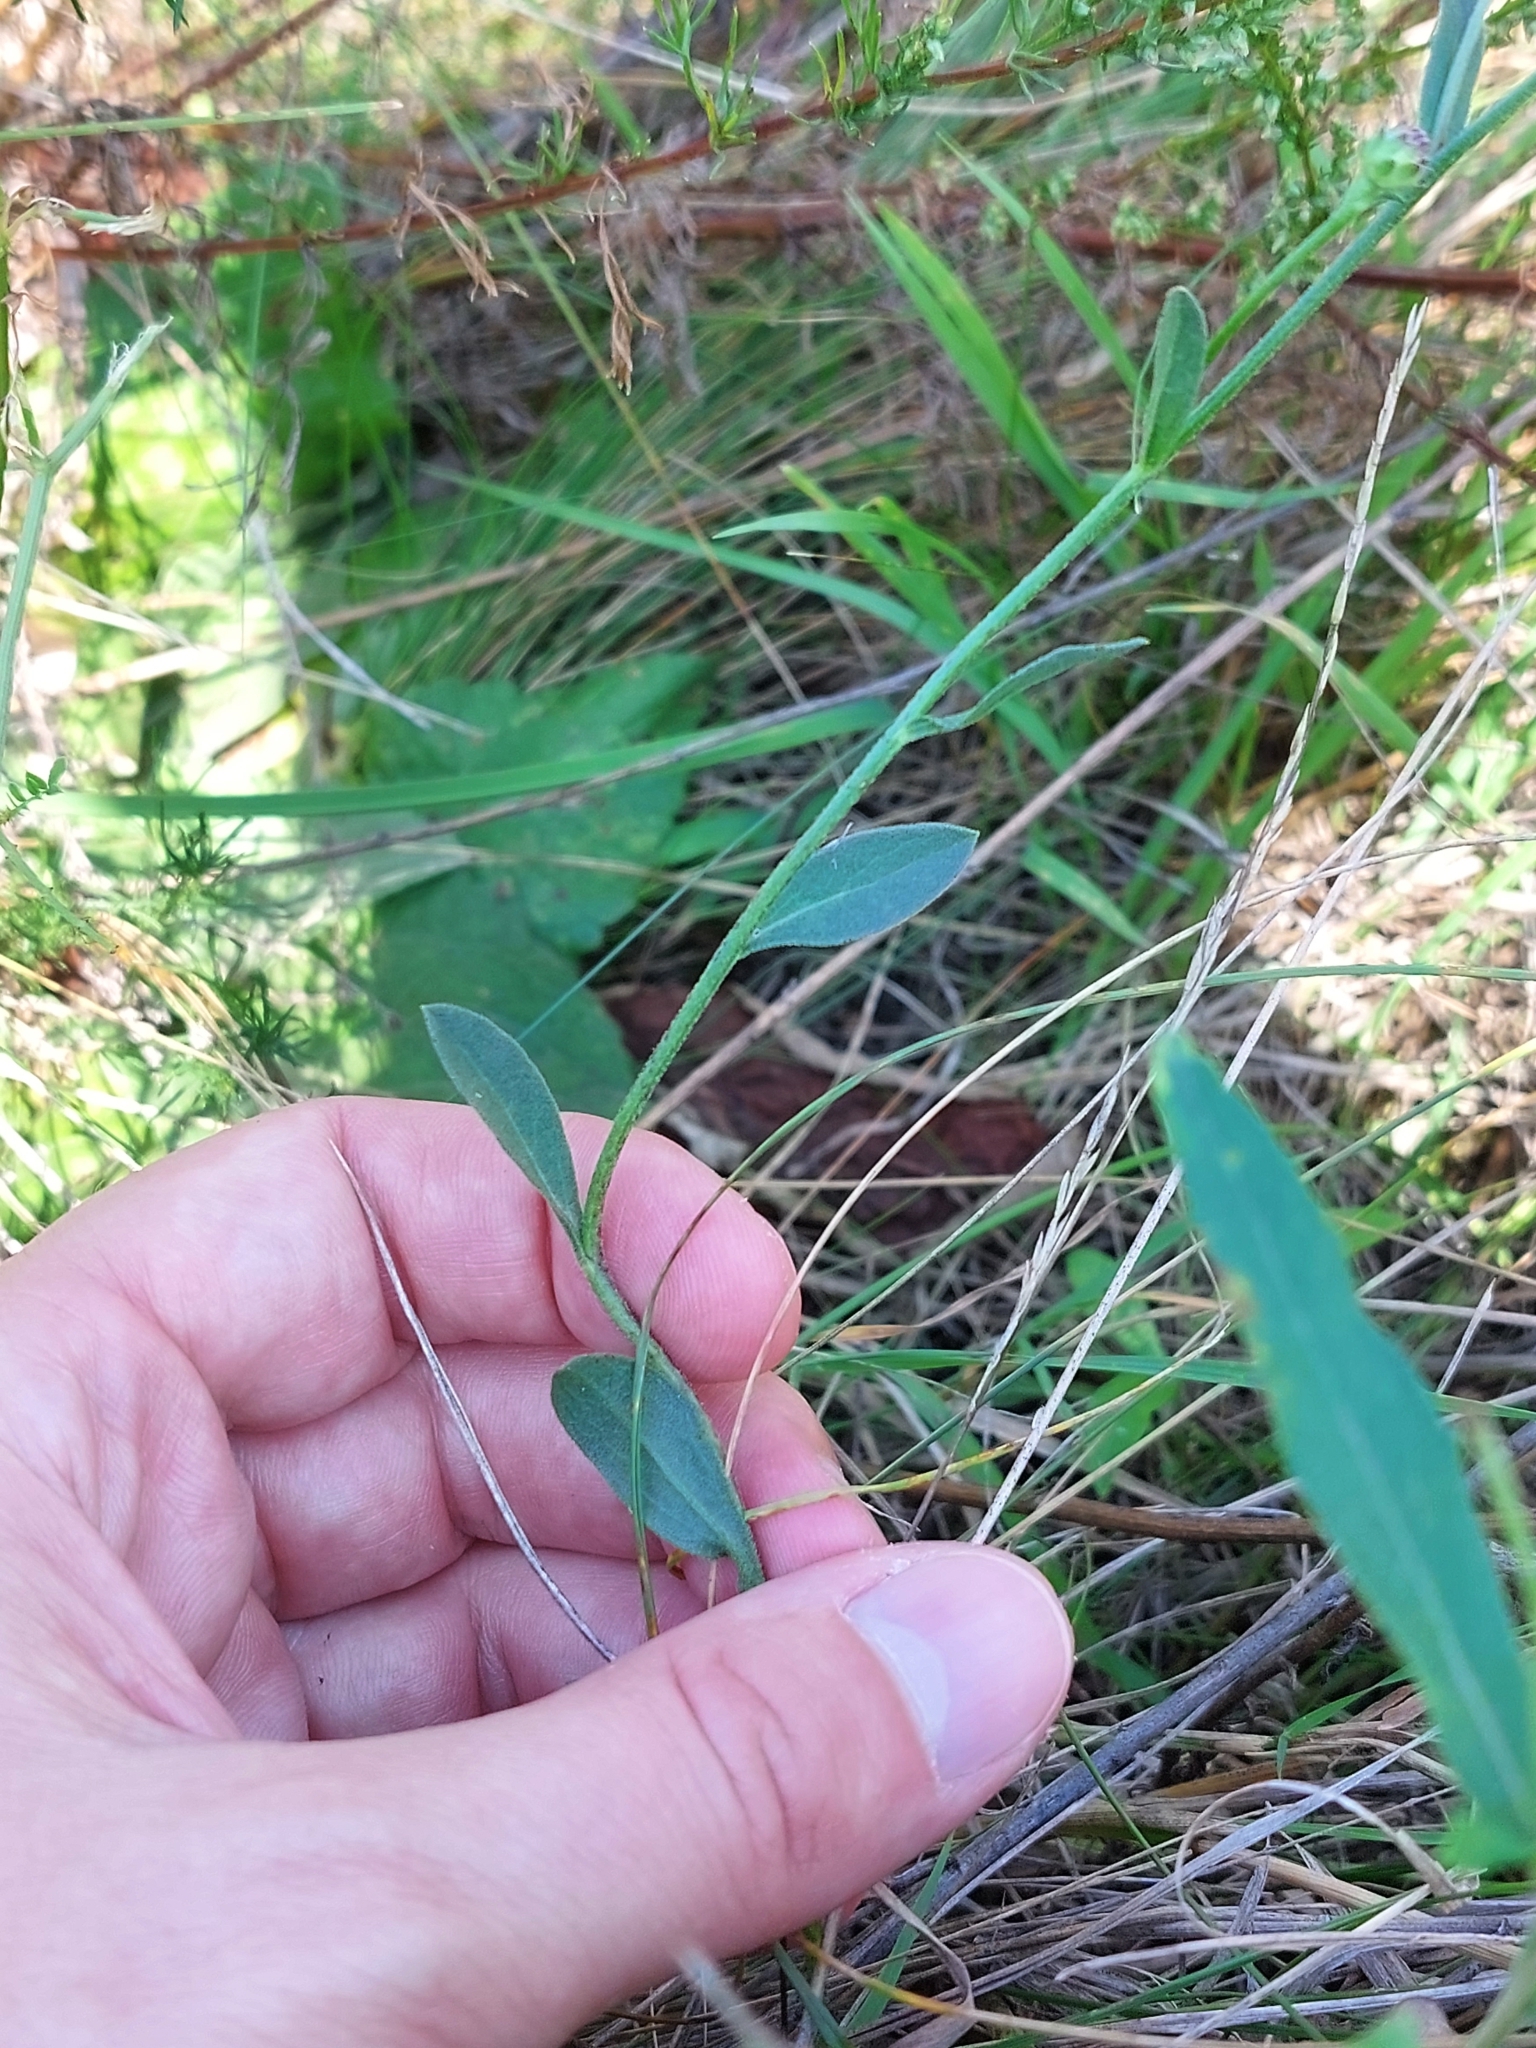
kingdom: Plantae
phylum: Tracheophyta
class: Magnoliopsida
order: Asterales
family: Asteraceae
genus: Aster
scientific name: Aster amellus
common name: European michaelmas daisy
